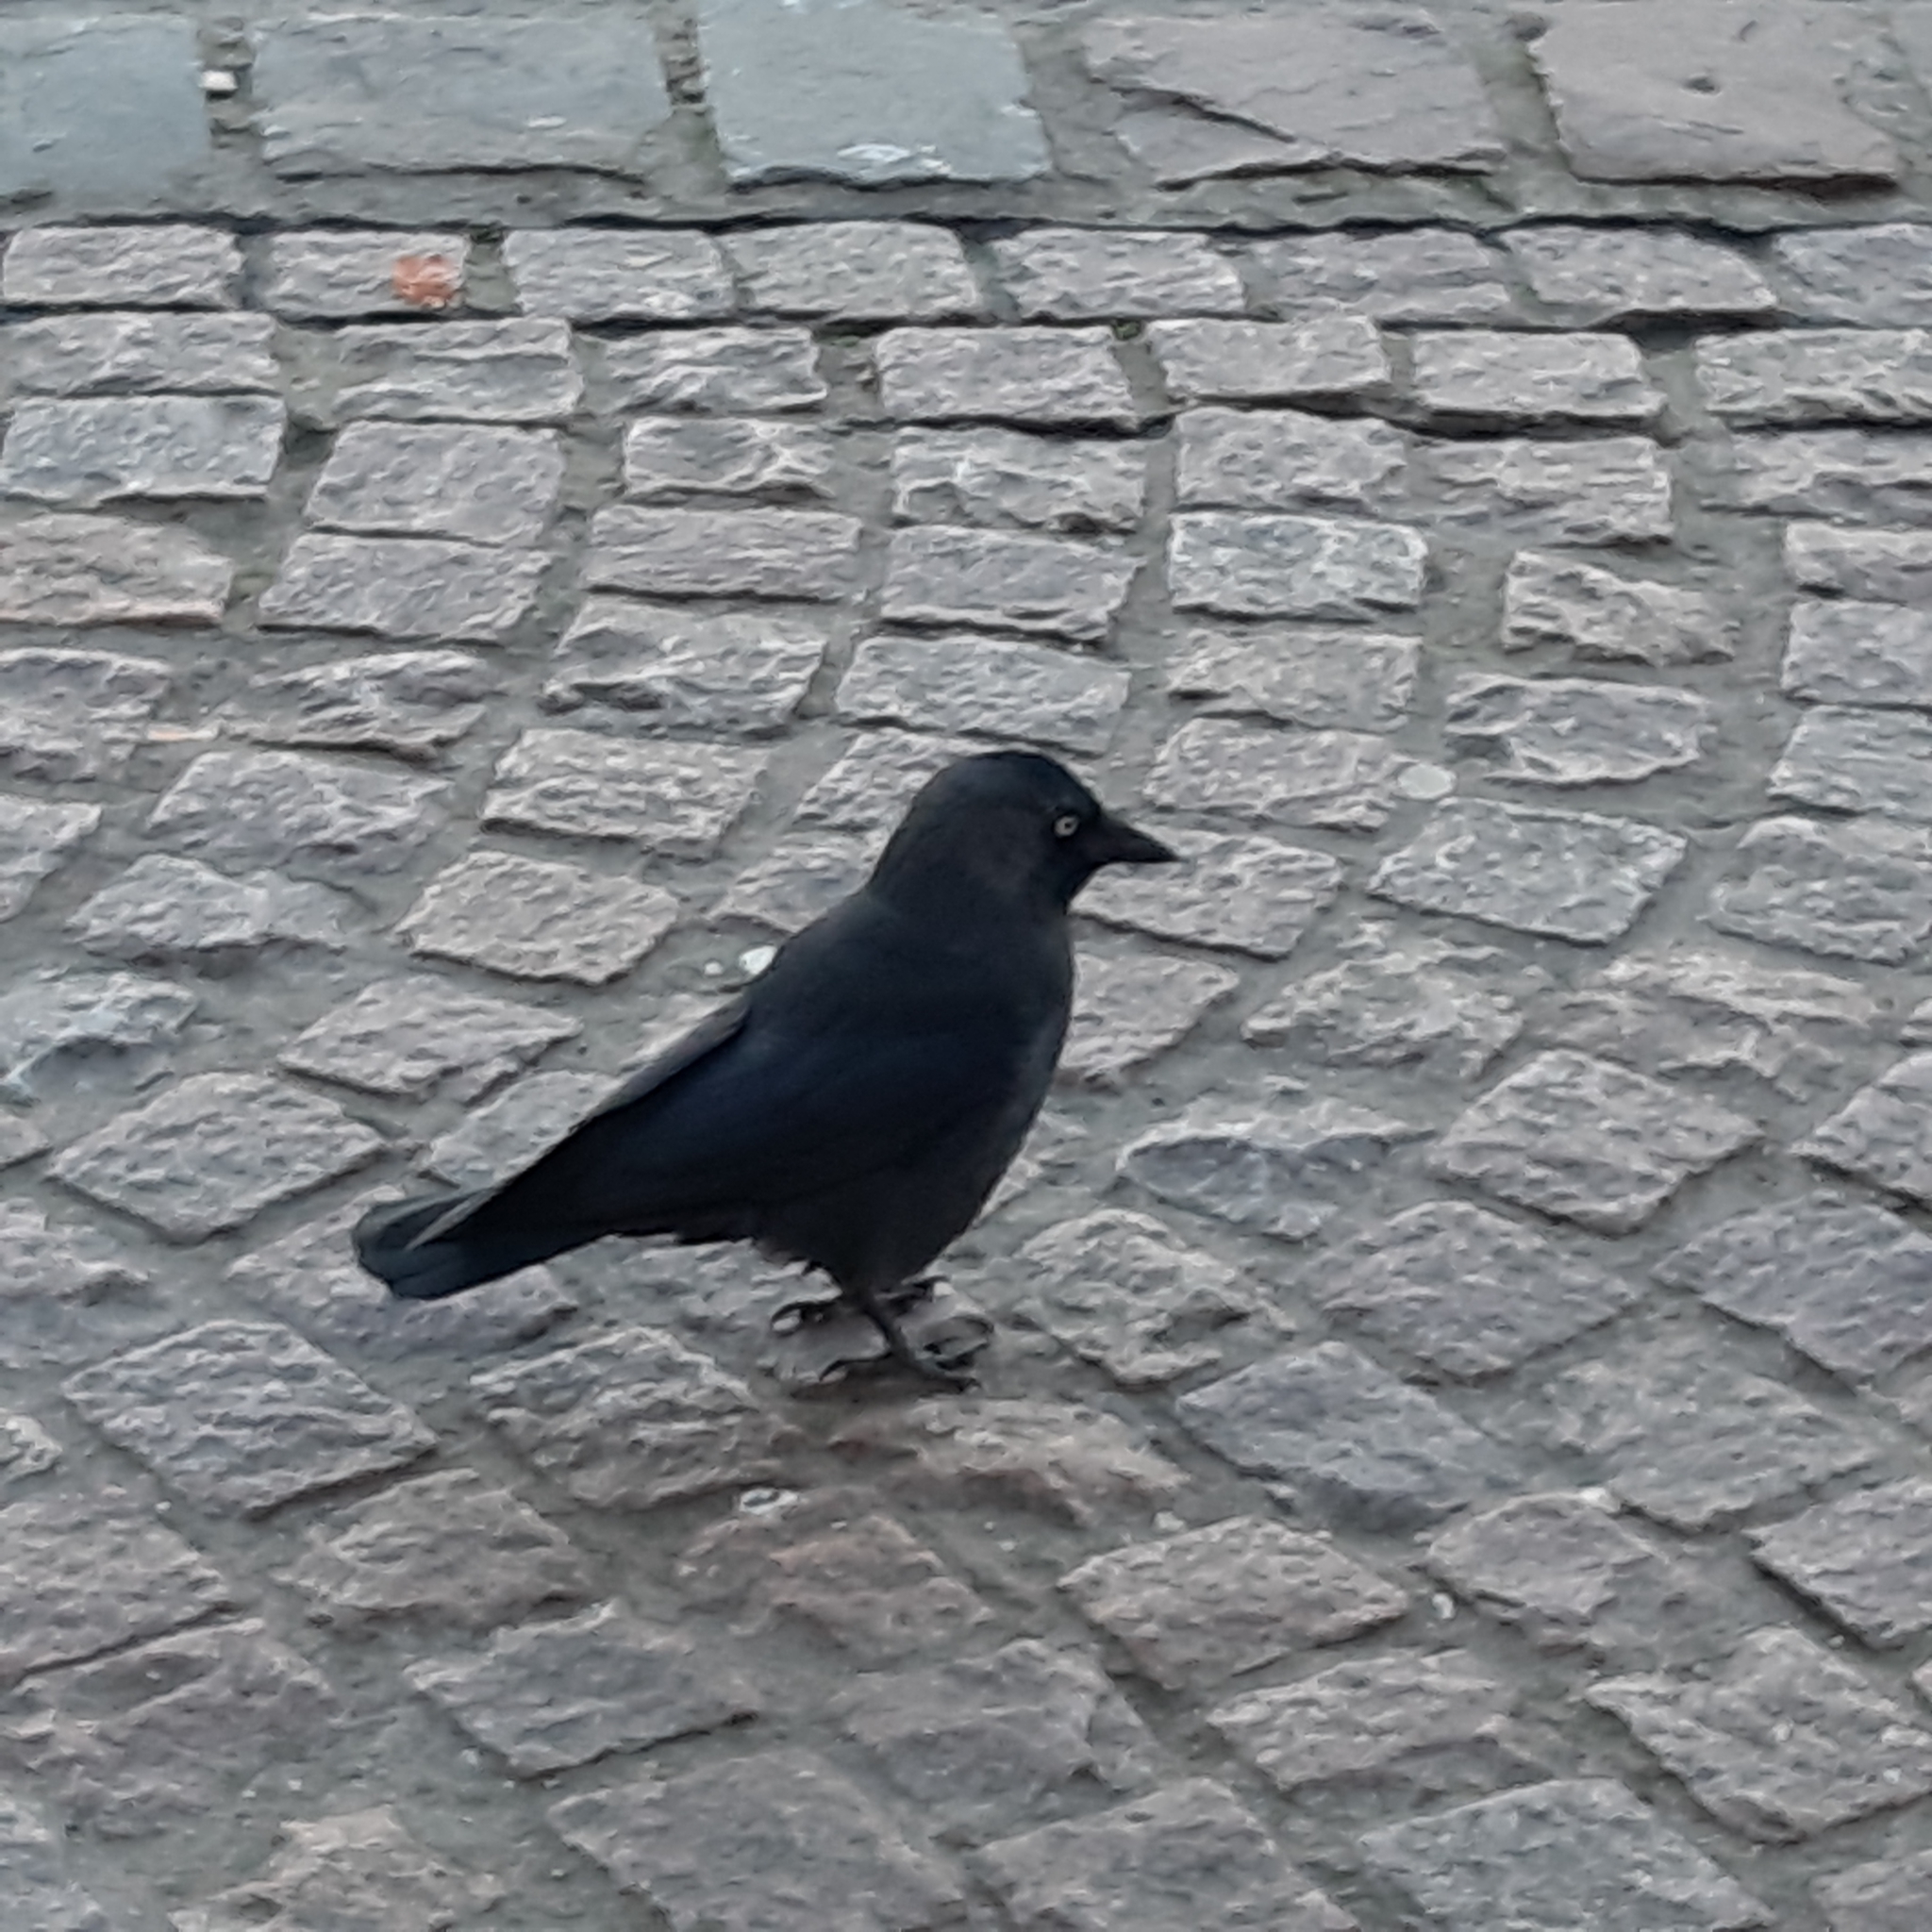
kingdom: Animalia
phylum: Chordata
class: Aves
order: Passeriformes
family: Corvidae
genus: Coloeus
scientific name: Coloeus monedula
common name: Western jackdaw
